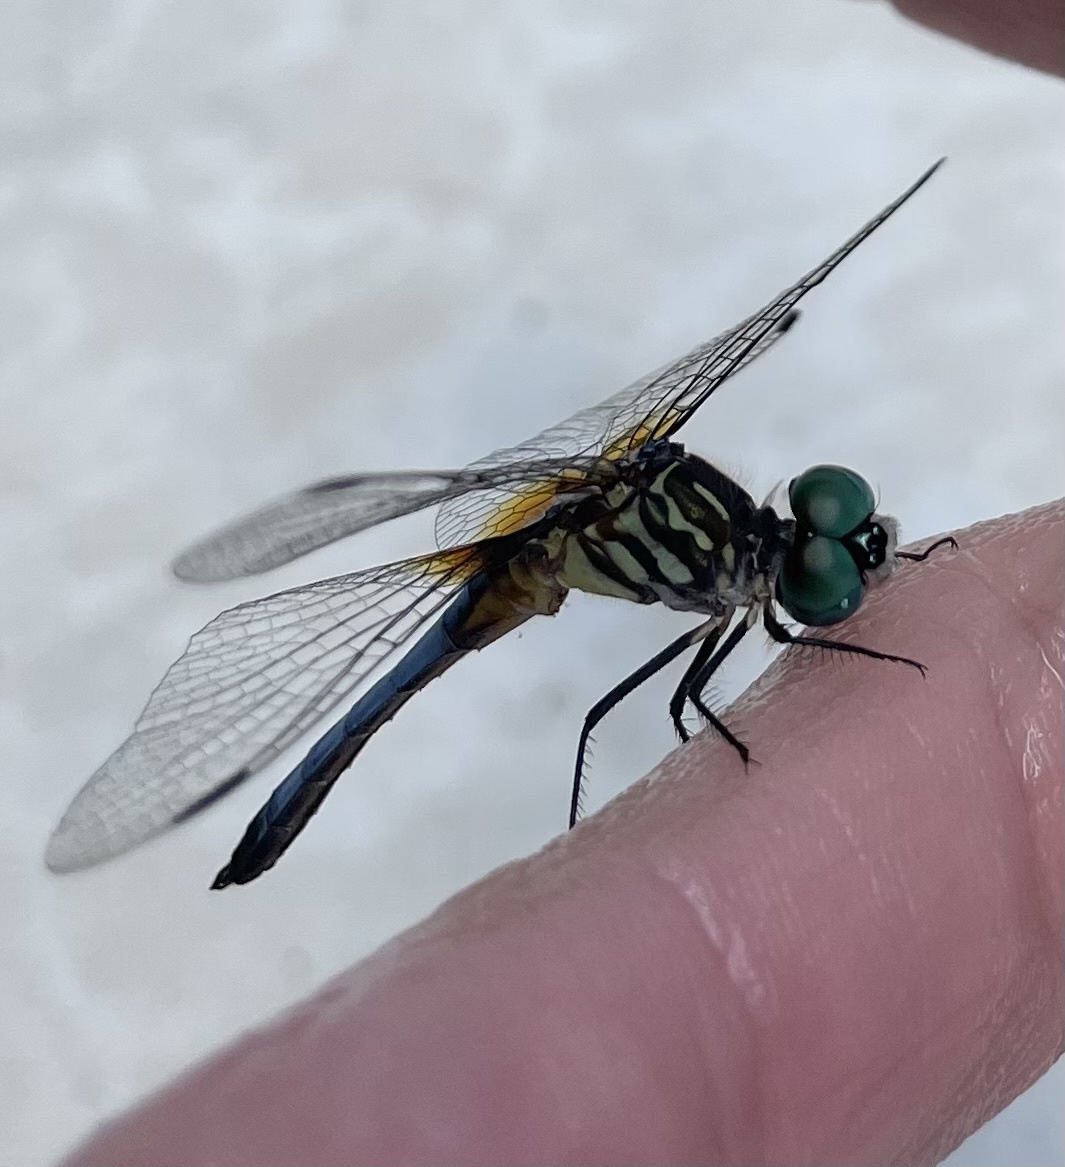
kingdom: Animalia
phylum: Arthropoda
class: Insecta
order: Odonata
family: Libellulidae
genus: Pachydiplax
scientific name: Pachydiplax longipennis
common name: Blue dasher
